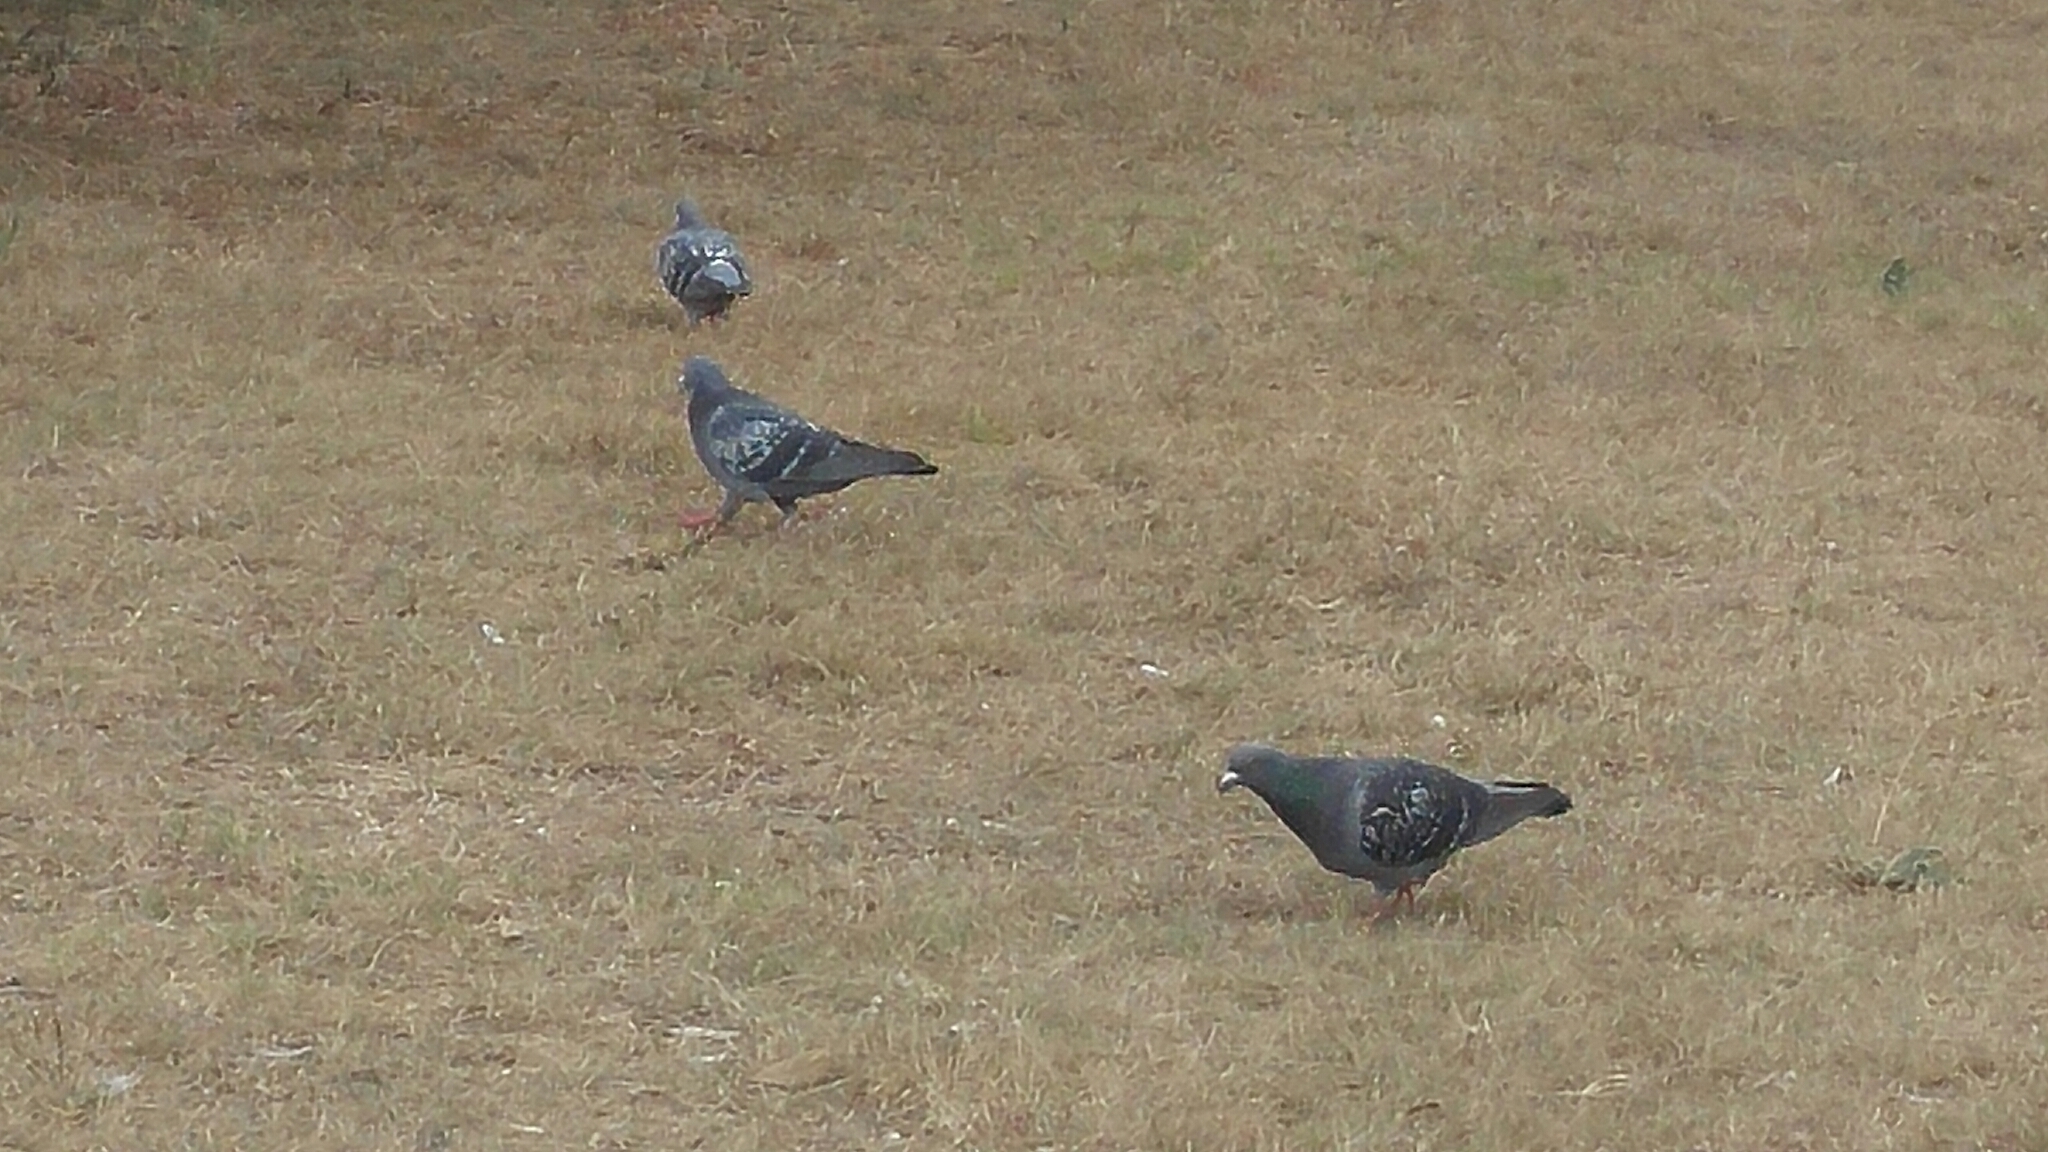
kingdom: Animalia
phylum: Chordata
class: Aves
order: Columbiformes
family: Columbidae
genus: Columba
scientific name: Columba livia
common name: Rock pigeon
